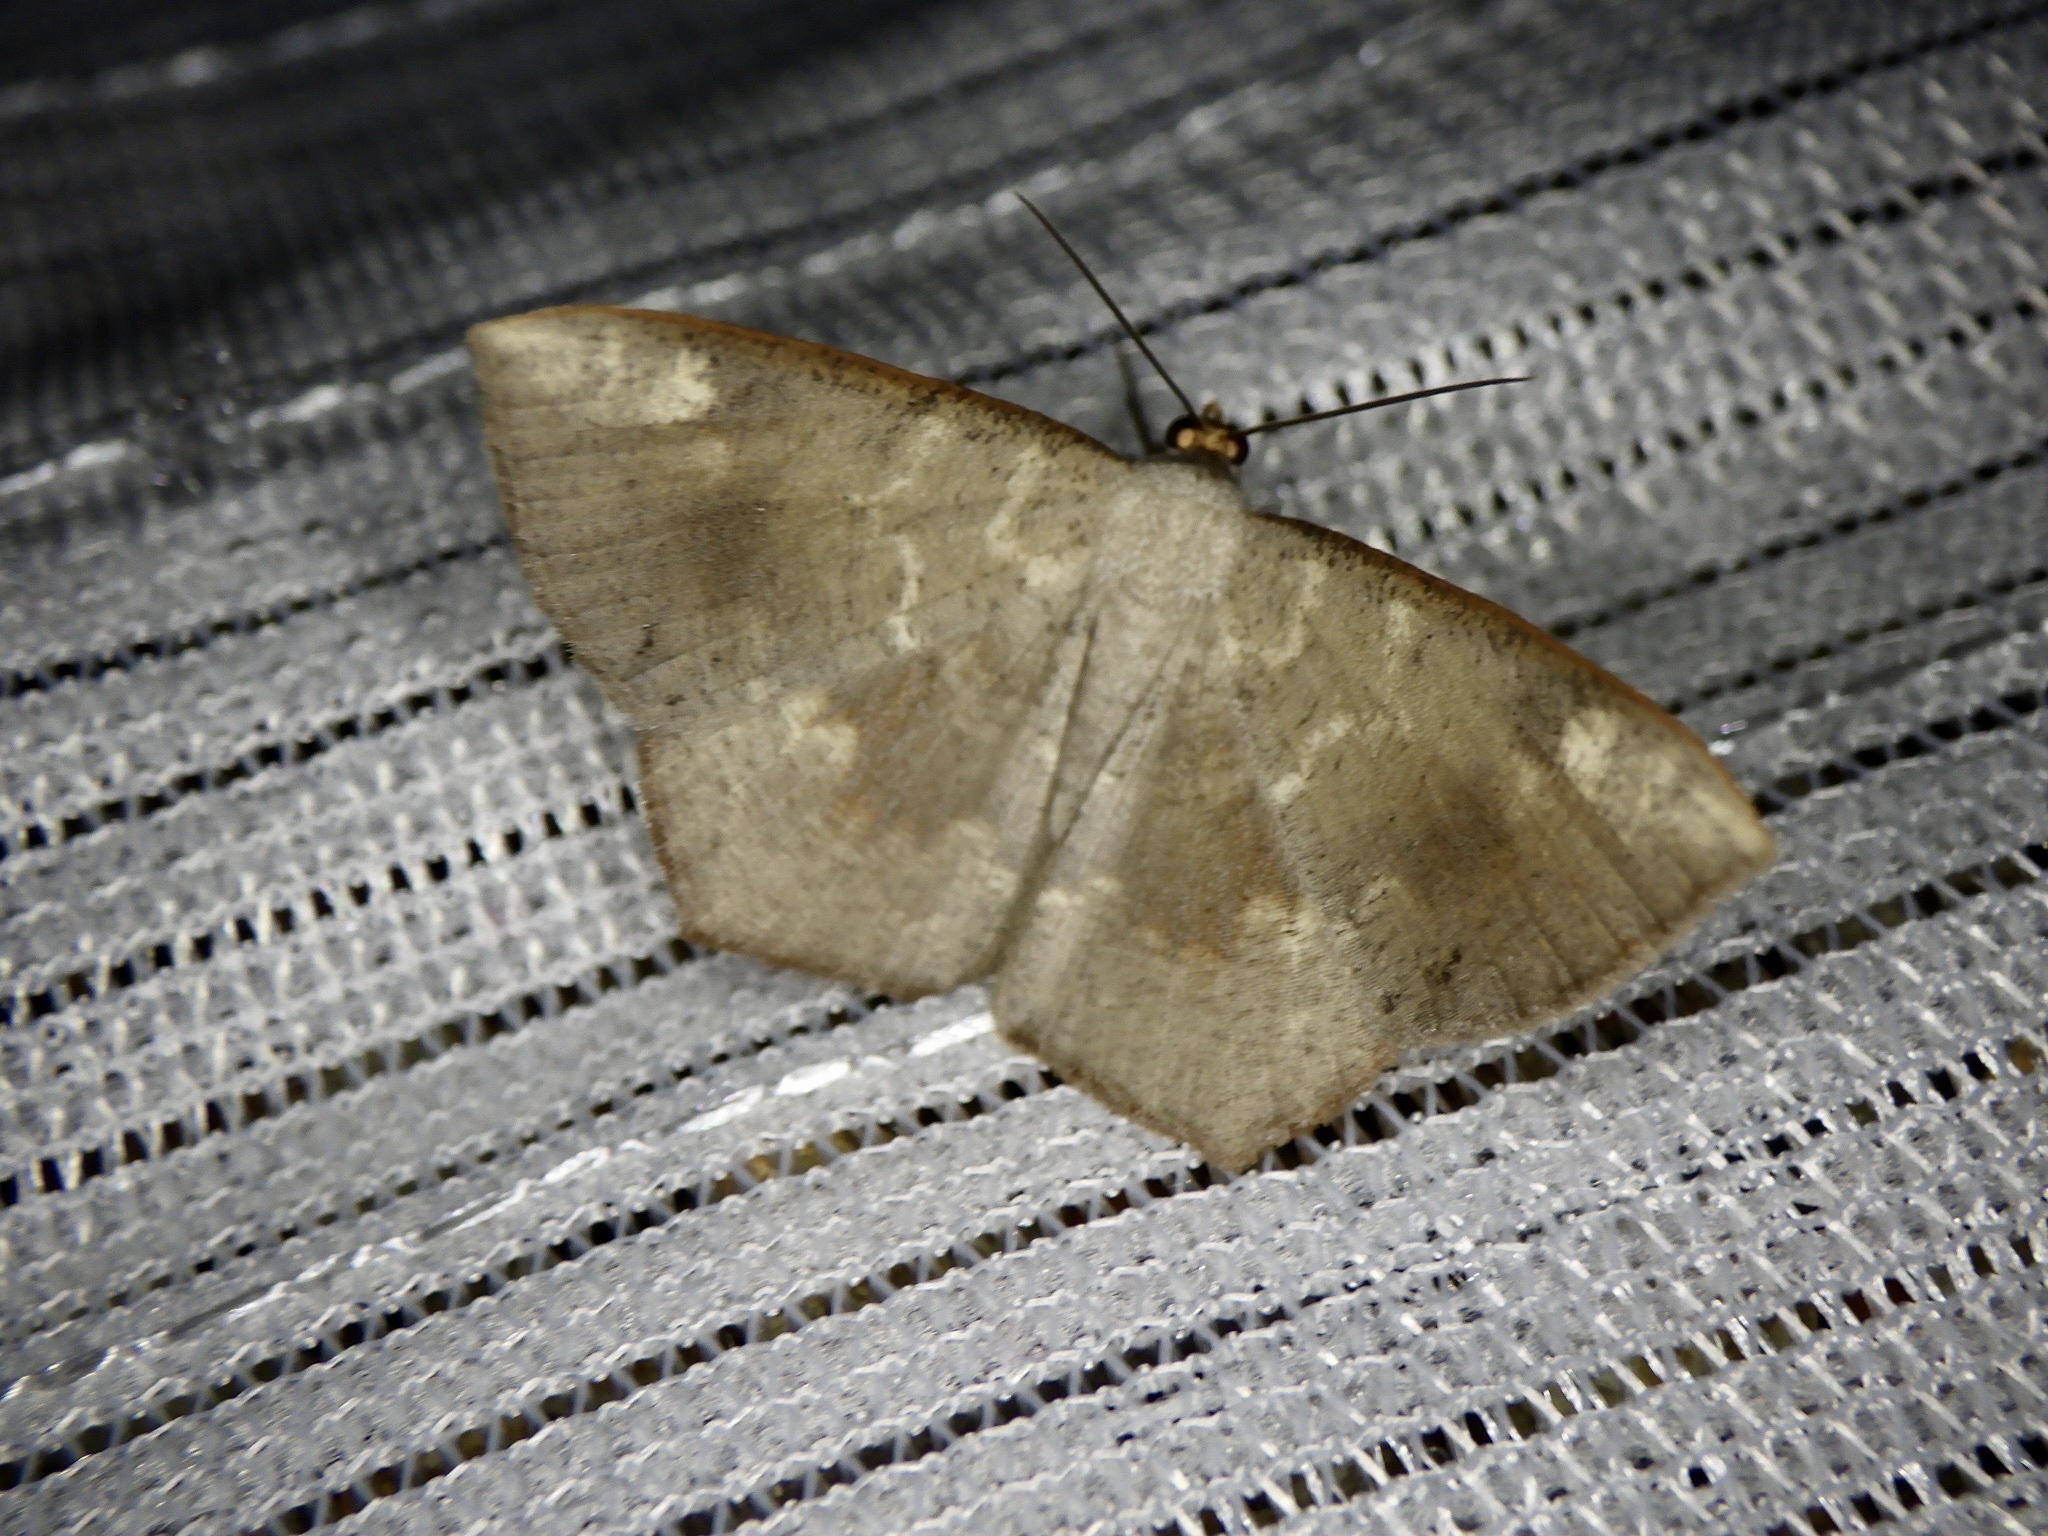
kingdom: Animalia
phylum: Arthropoda
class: Insecta
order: Lepidoptera
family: Geometridae
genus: Peratostega
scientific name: Peratostega deletaria
